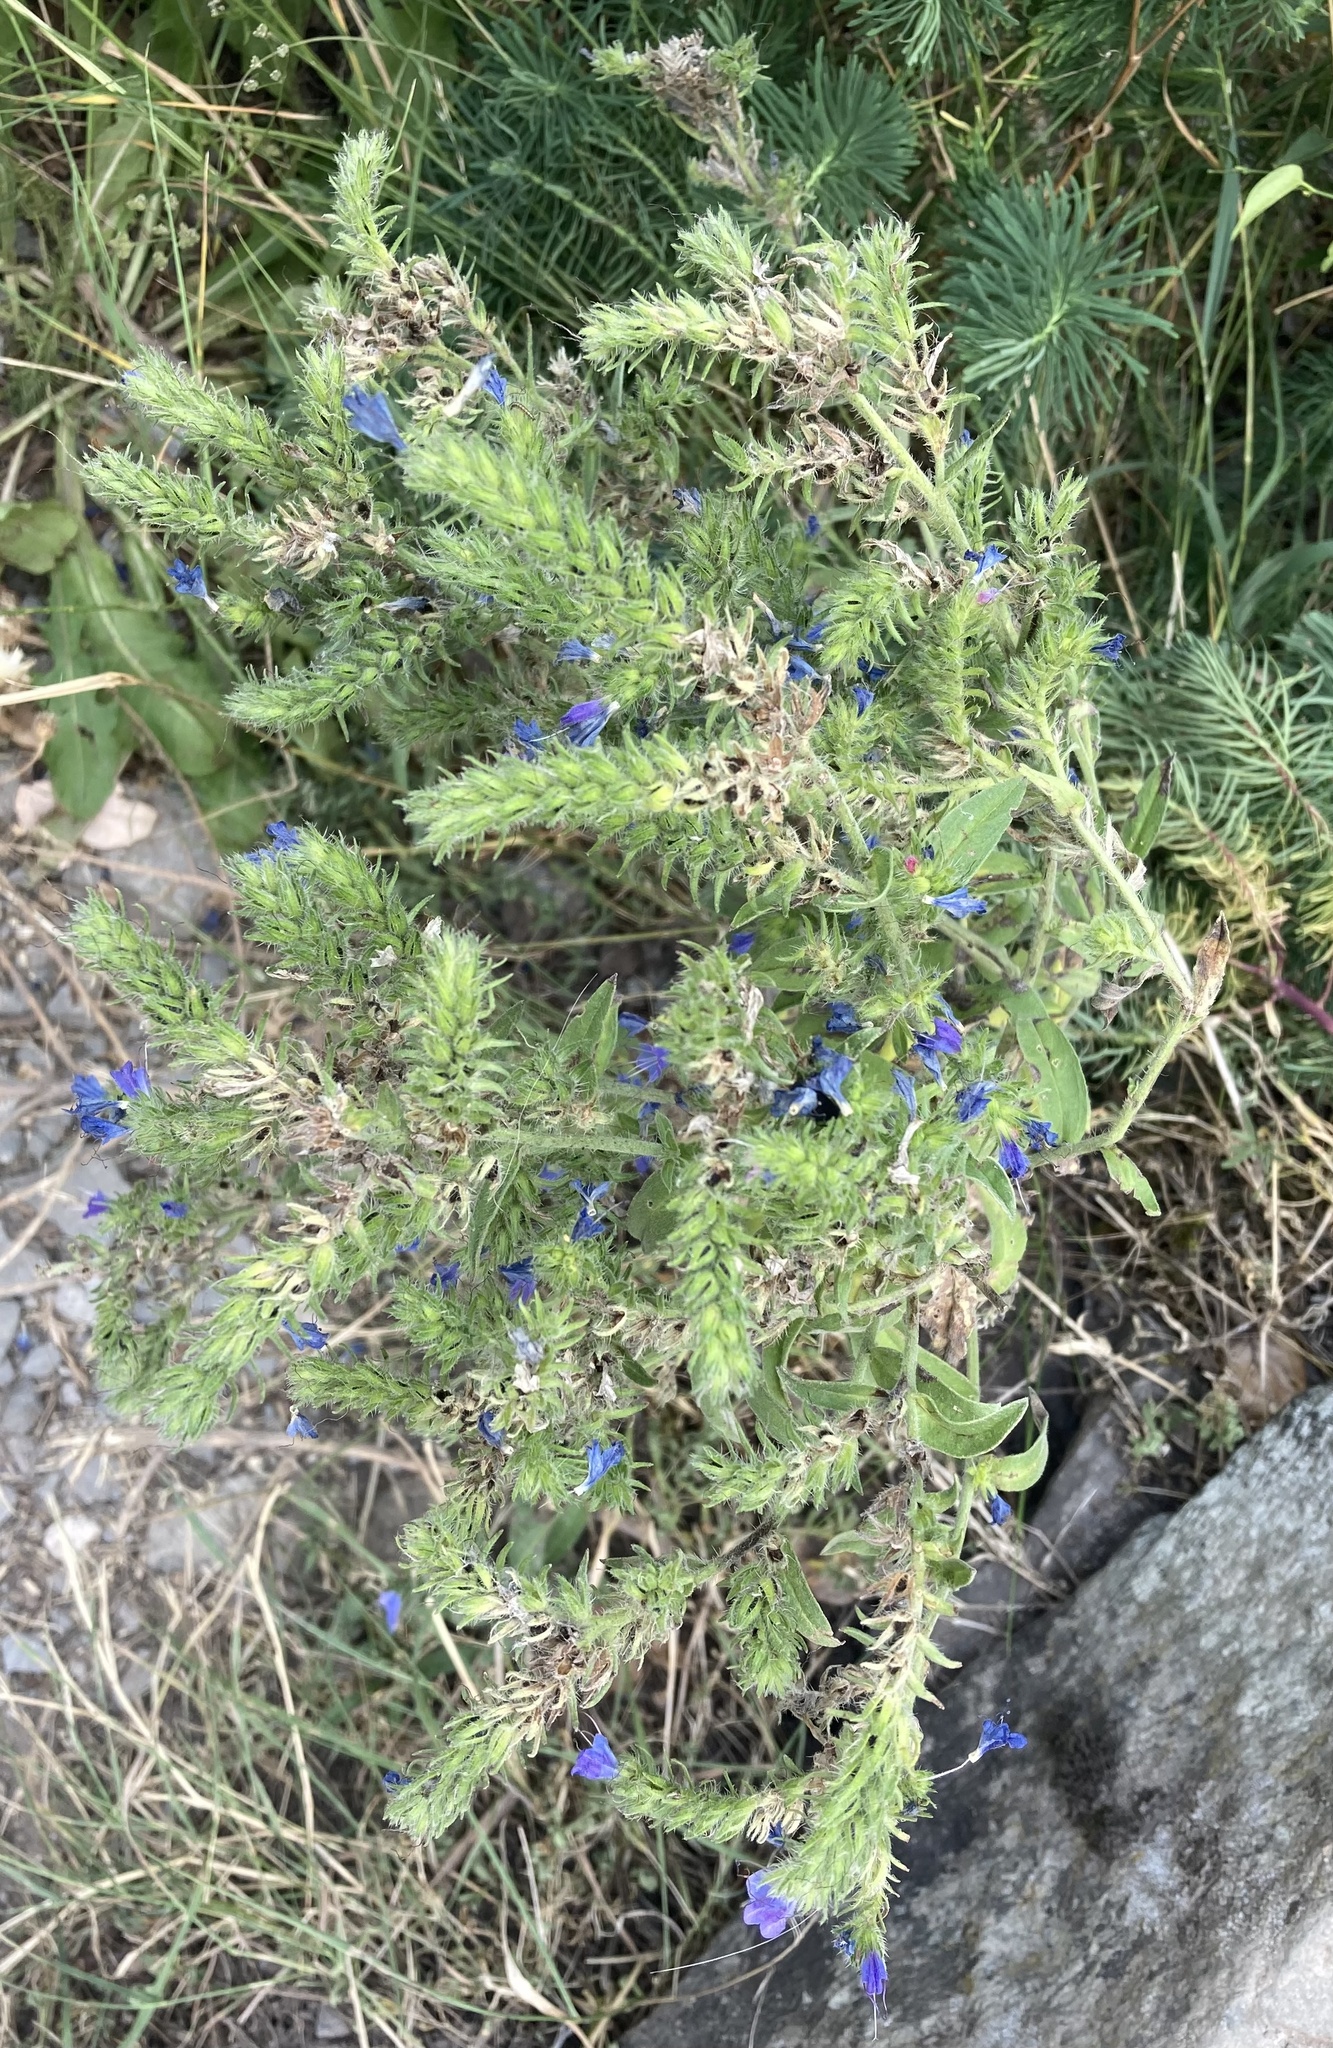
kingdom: Plantae
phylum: Tracheophyta
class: Magnoliopsida
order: Boraginales
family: Boraginaceae
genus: Echium
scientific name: Echium vulgare
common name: Common viper's bugloss
